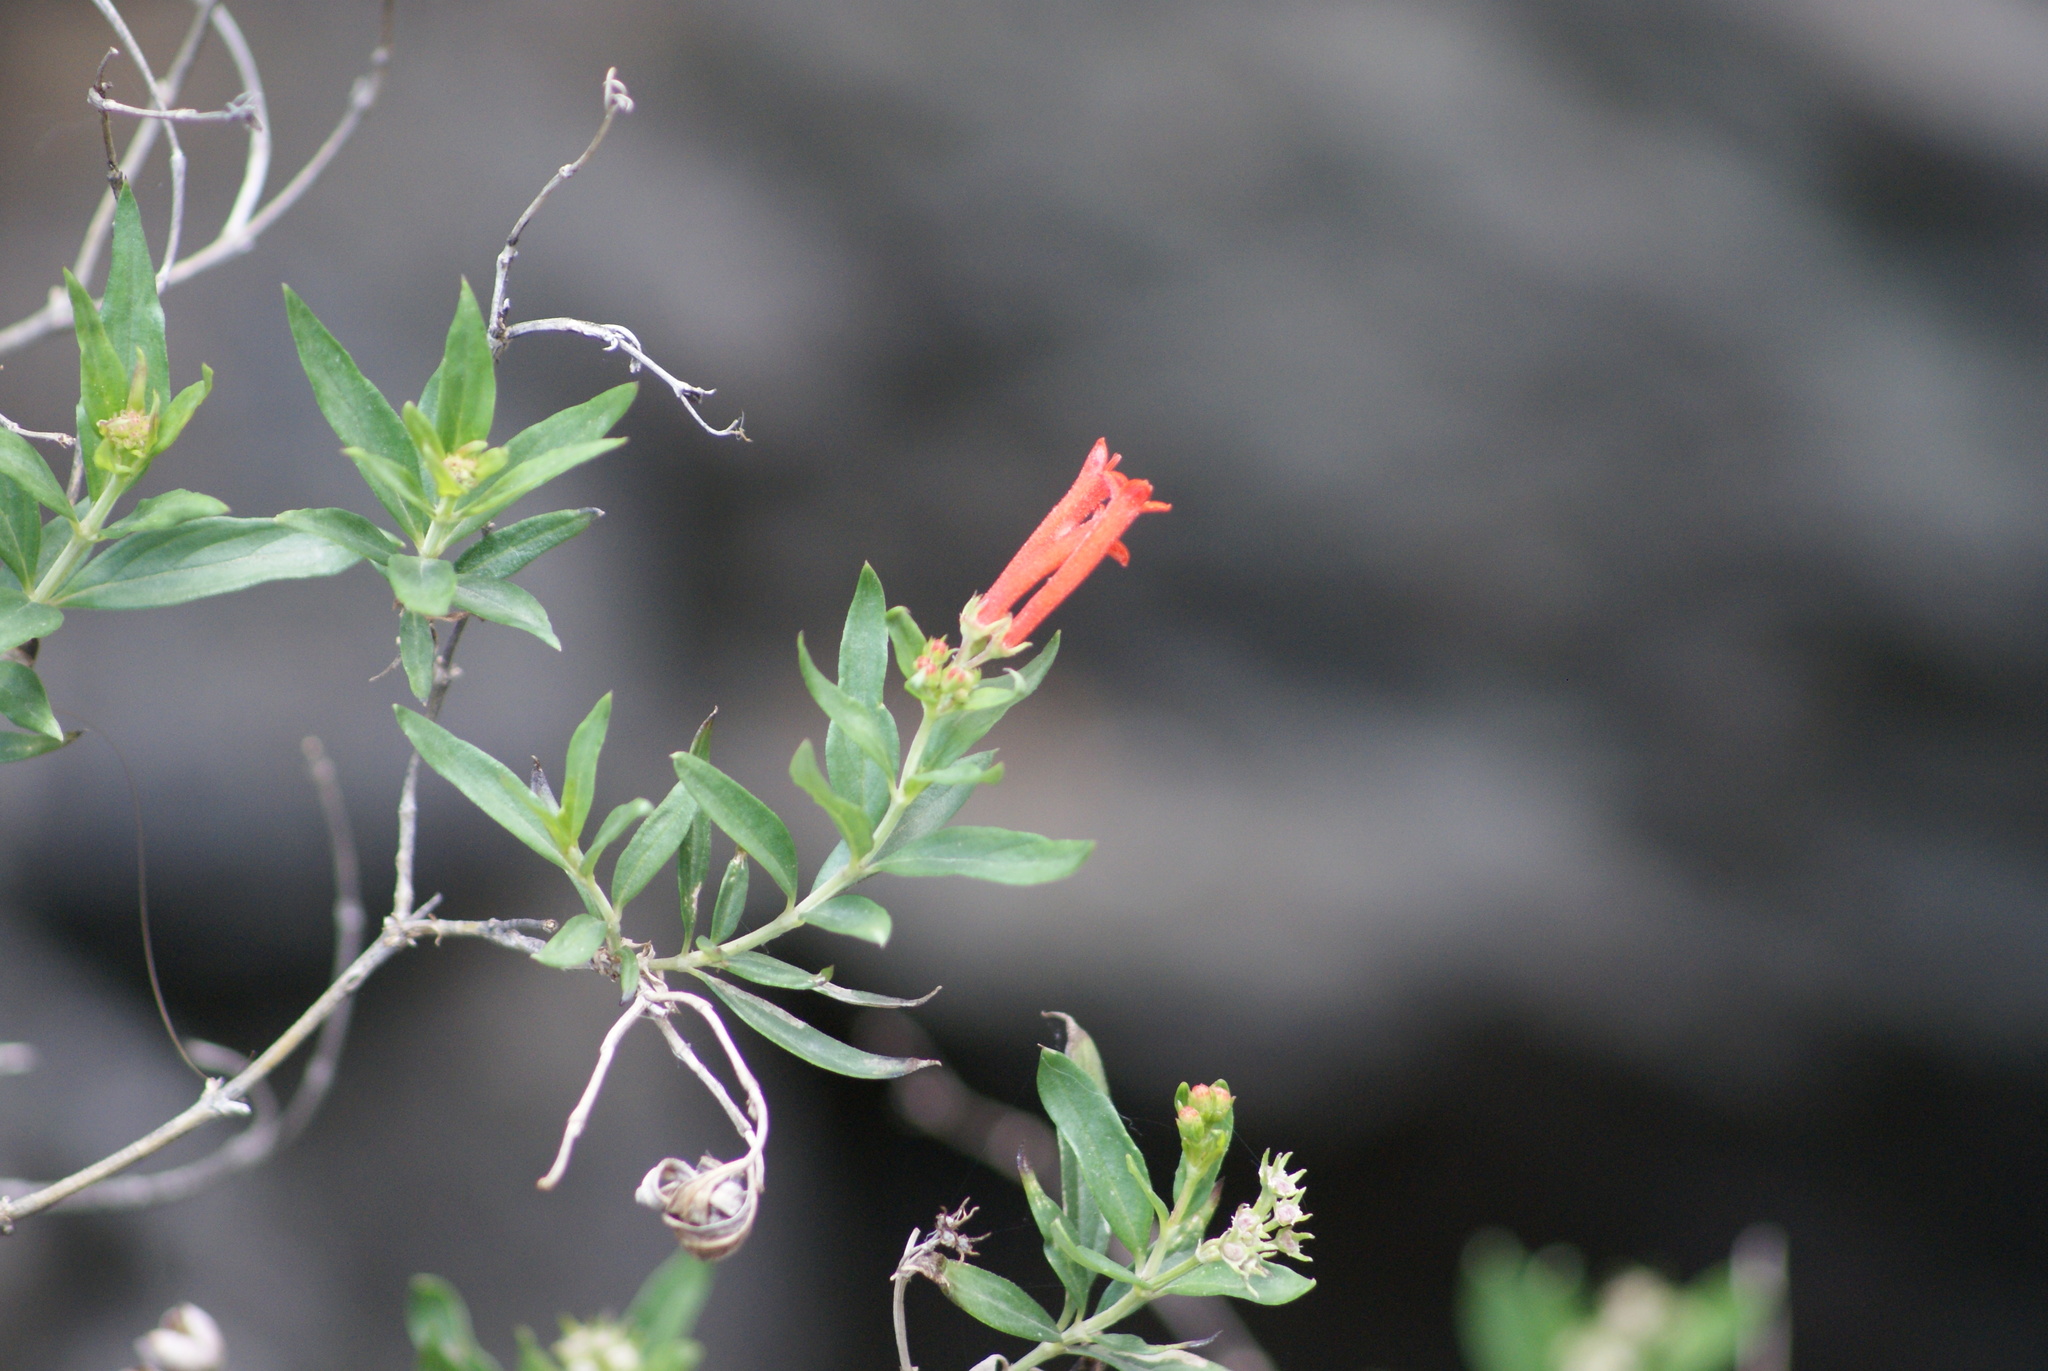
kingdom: Plantae
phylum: Tracheophyta
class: Magnoliopsida
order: Gentianales
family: Rubiaceae
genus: Bouvardia
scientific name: Bouvardia ternifolia
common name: Scarlet bouvardia
